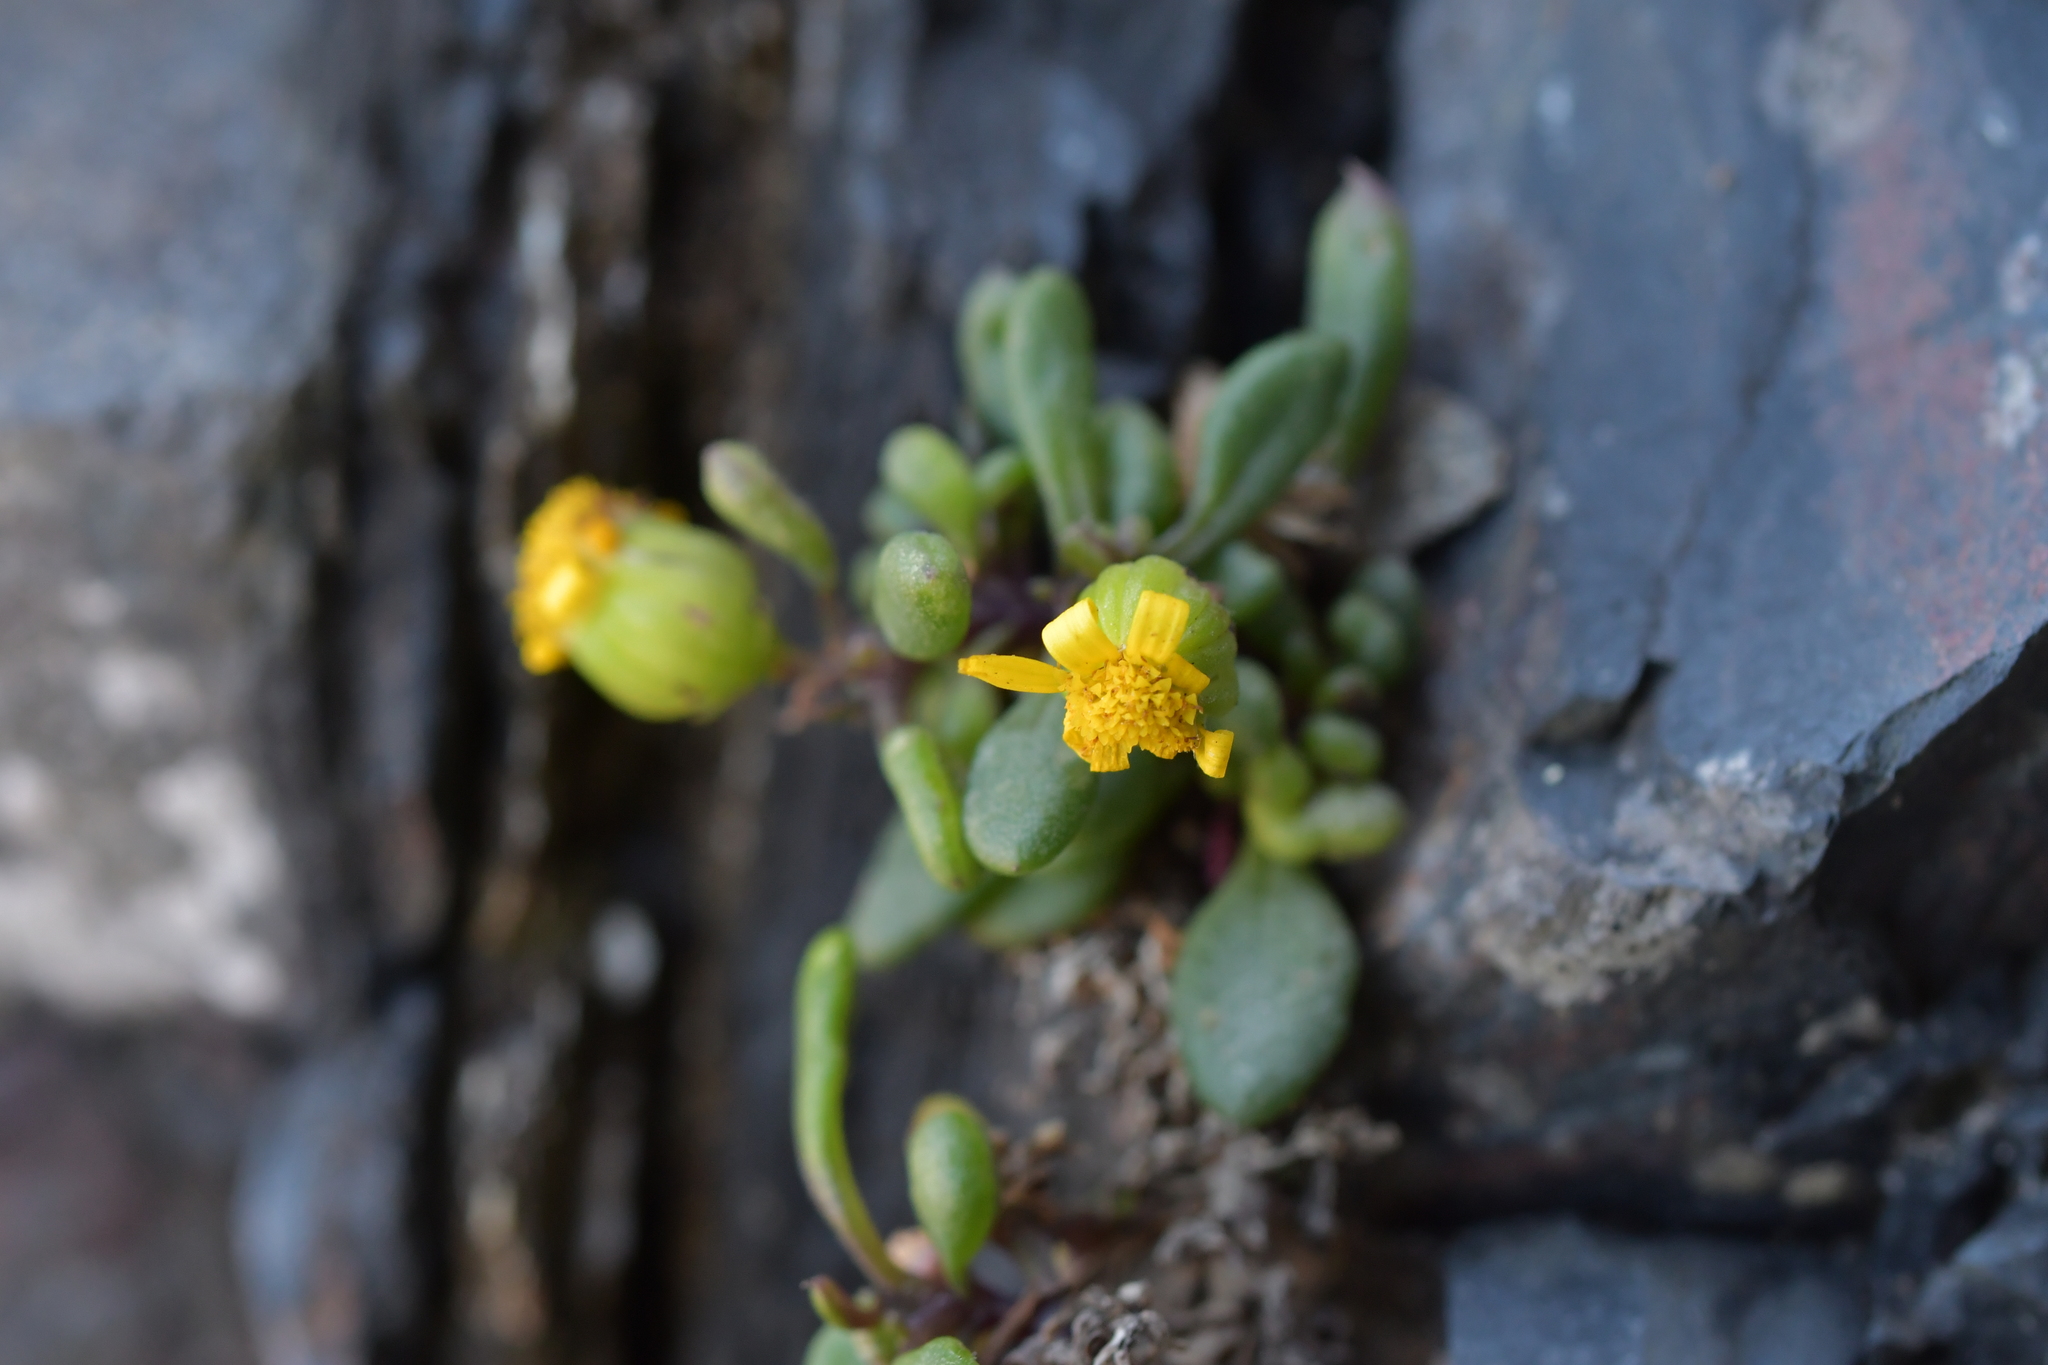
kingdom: Plantae
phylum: Tracheophyta
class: Magnoliopsida
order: Asterales
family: Asteraceae
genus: Senecio
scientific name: Senecio lautus
